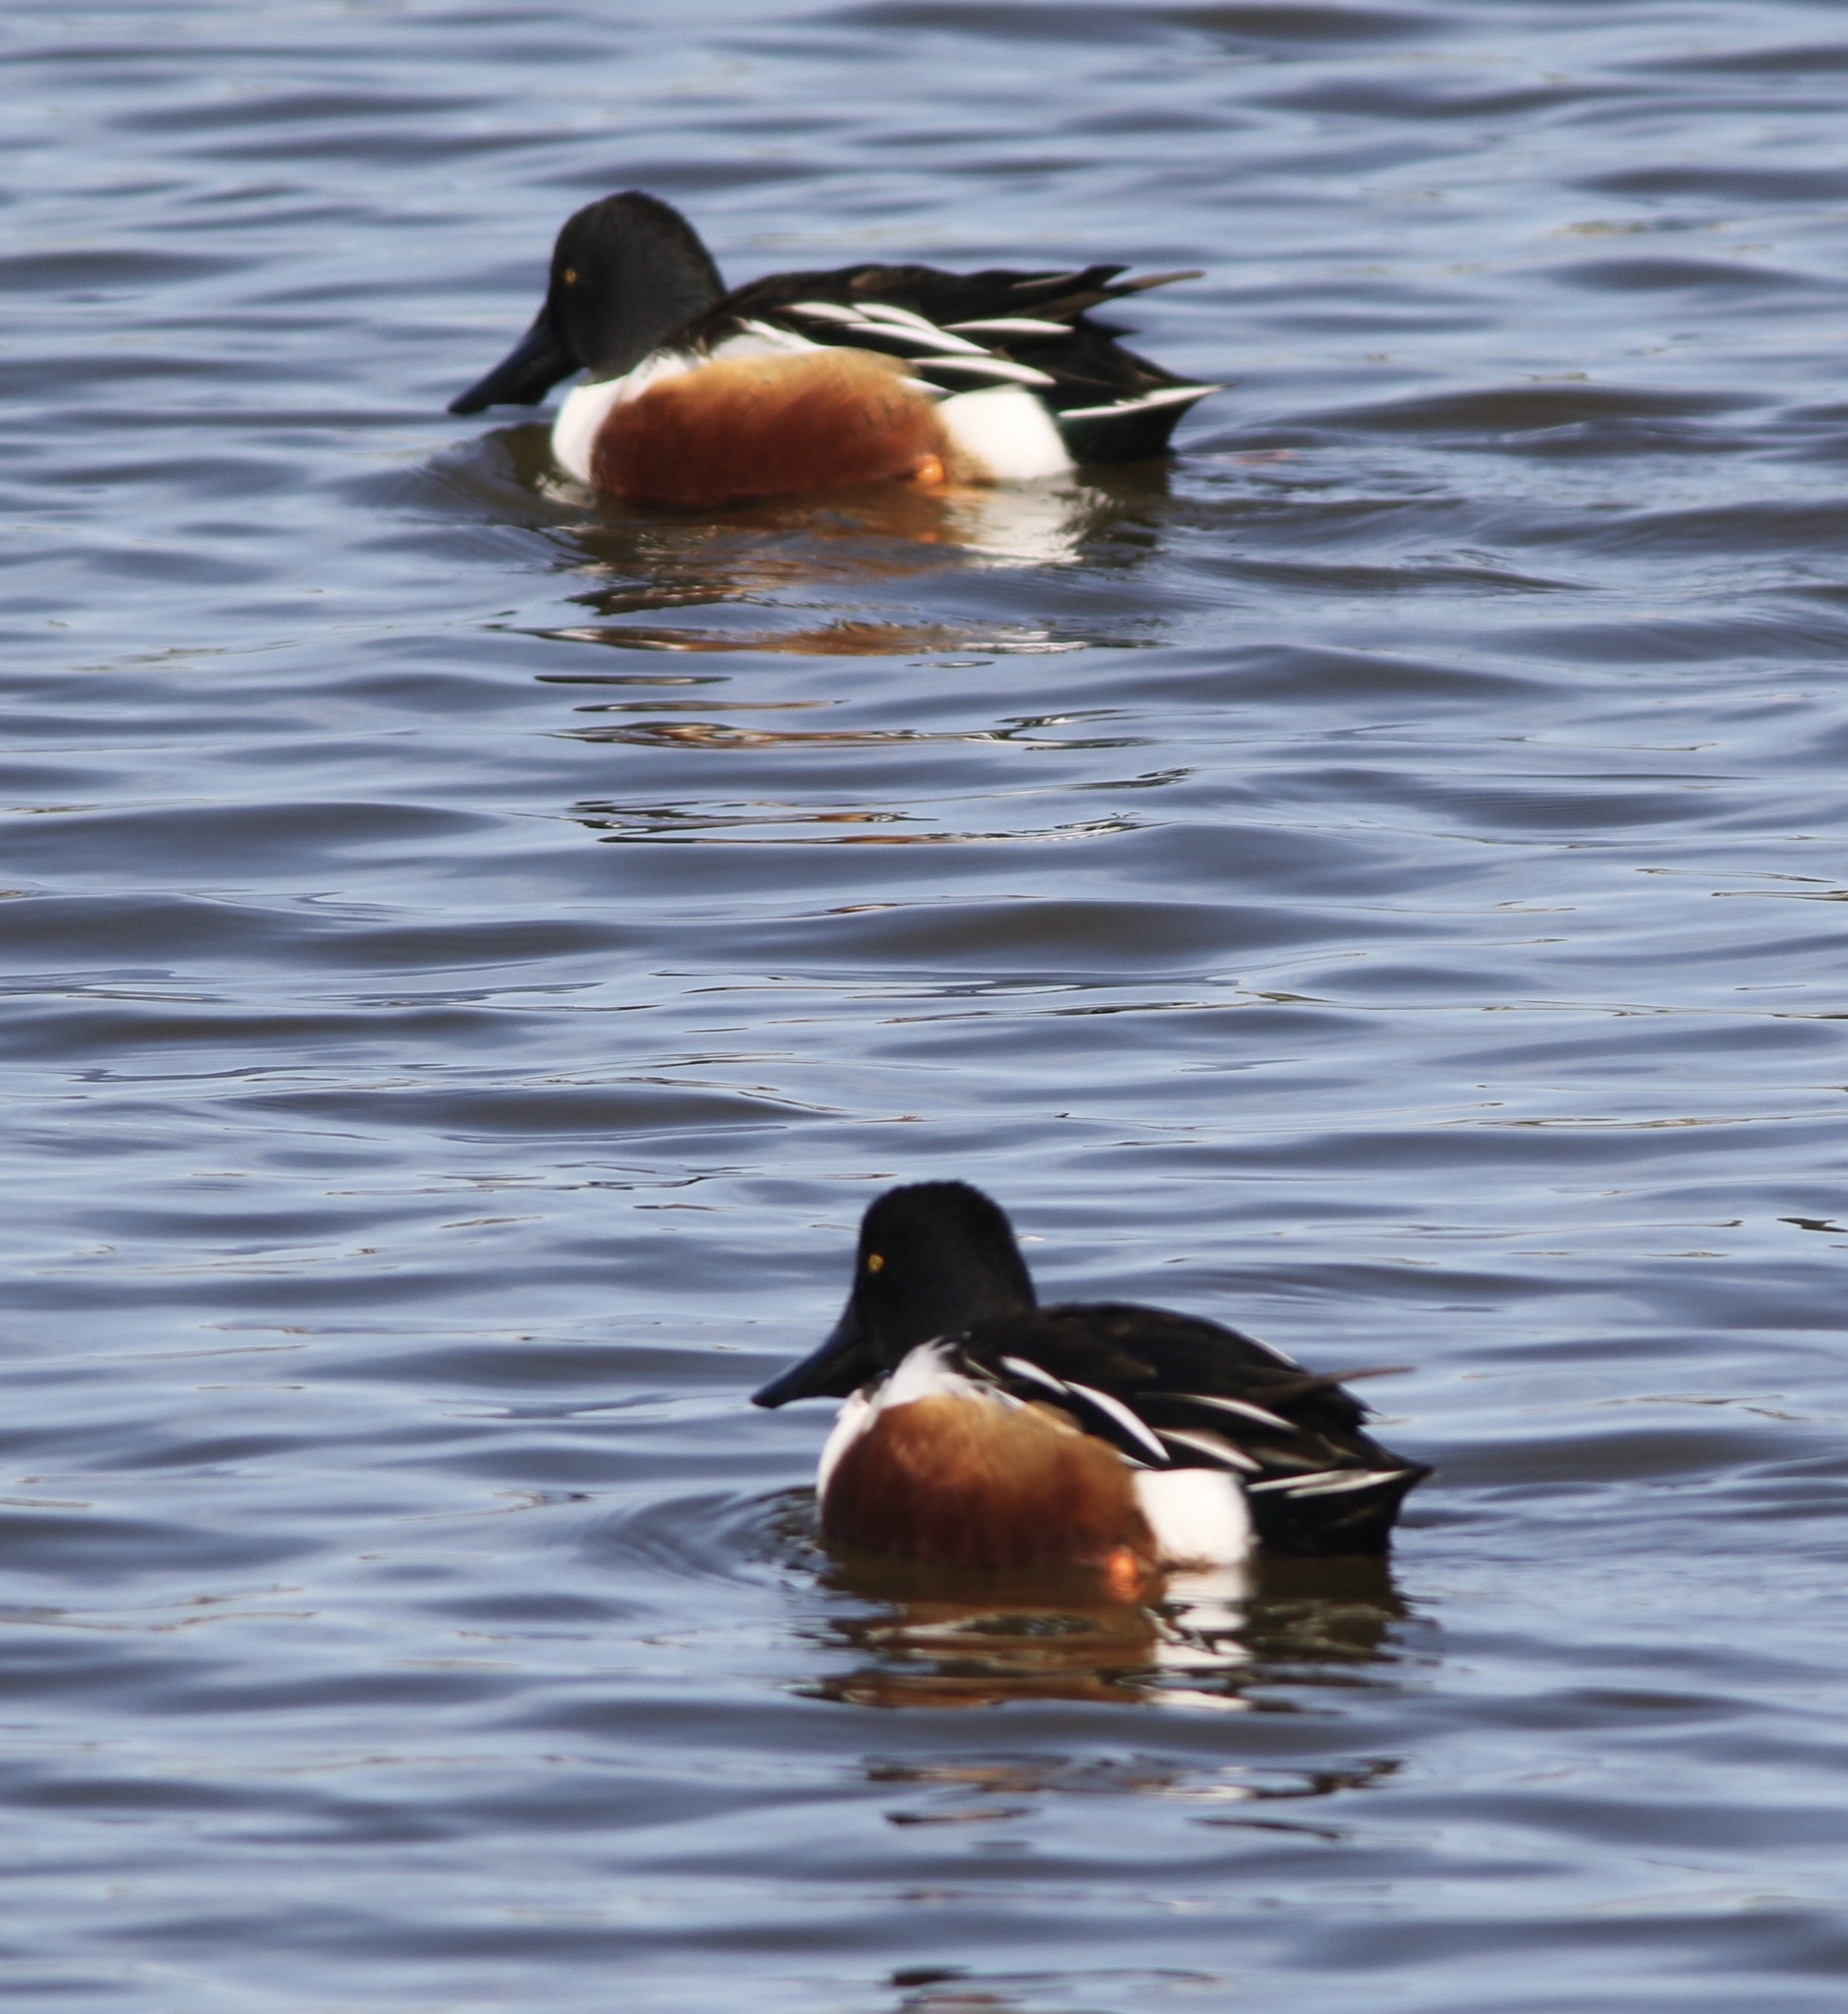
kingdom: Animalia
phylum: Chordata
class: Aves
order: Anseriformes
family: Anatidae
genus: Spatula
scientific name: Spatula clypeata
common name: Northern shoveler
